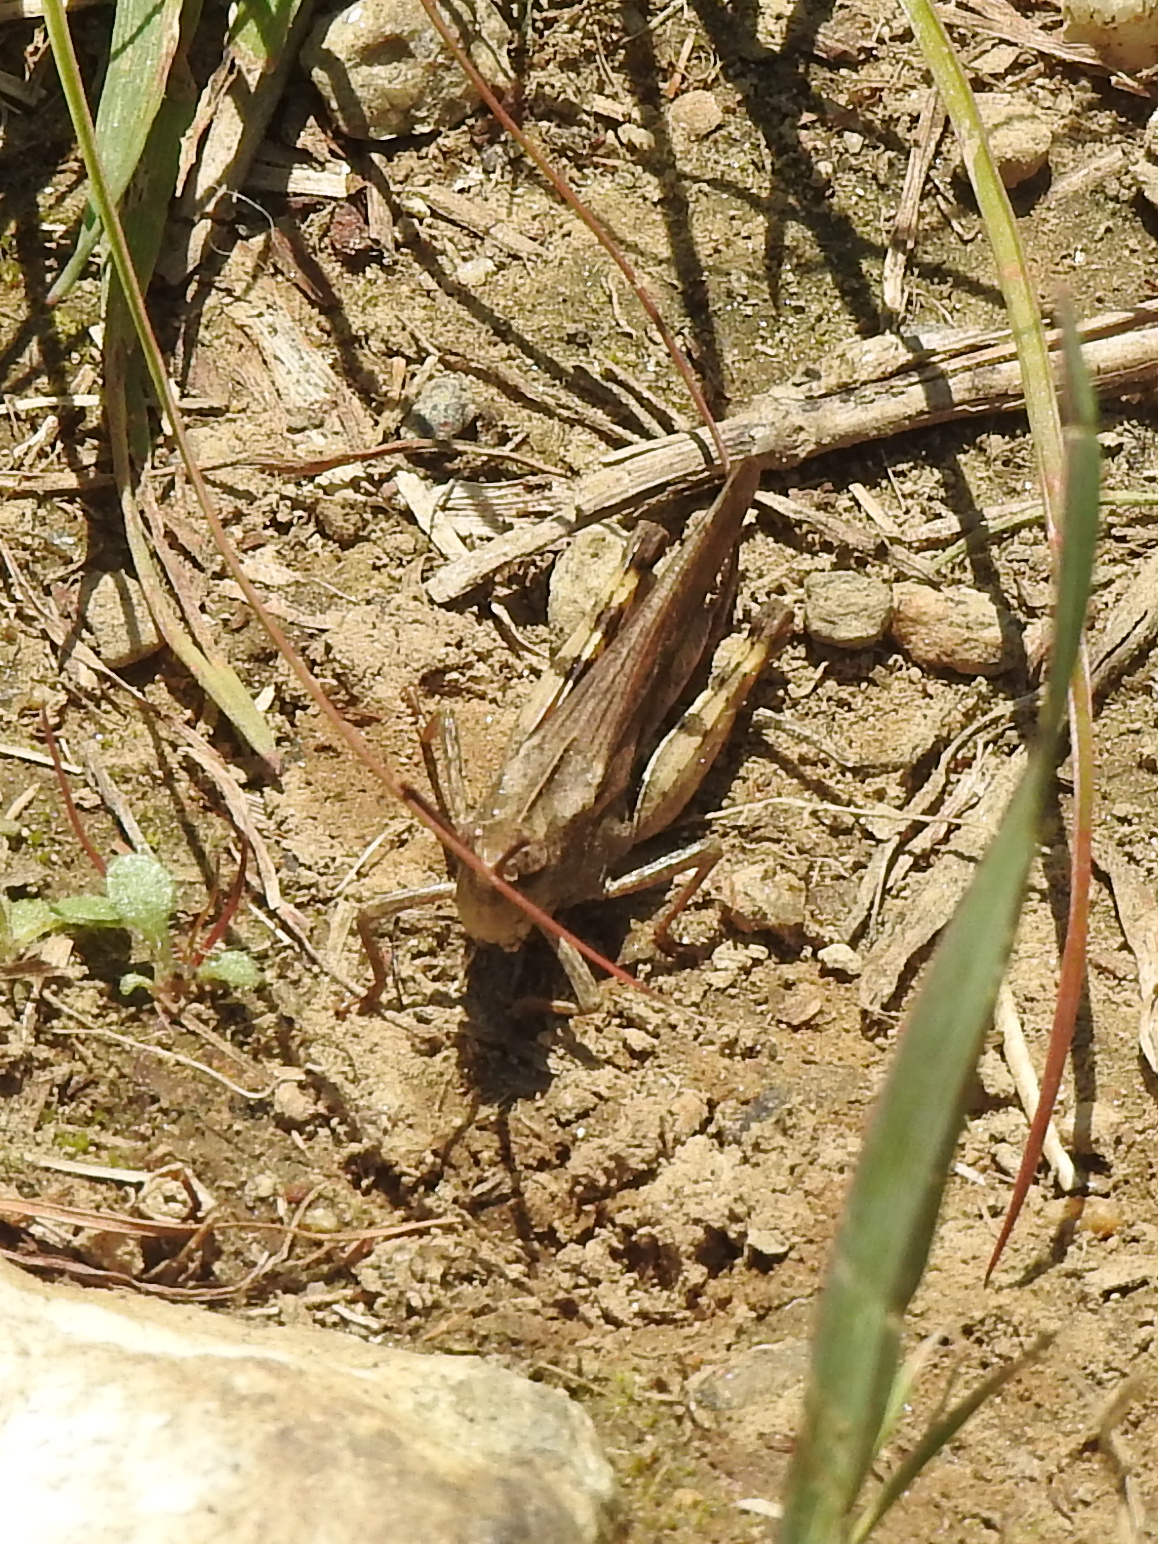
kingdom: Animalia
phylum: Arthropoda
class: Insecta
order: Orthoptera
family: Acrididae
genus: Chortophaga
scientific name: Chortophaga viridifasciata
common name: Green-striped grasshopper
